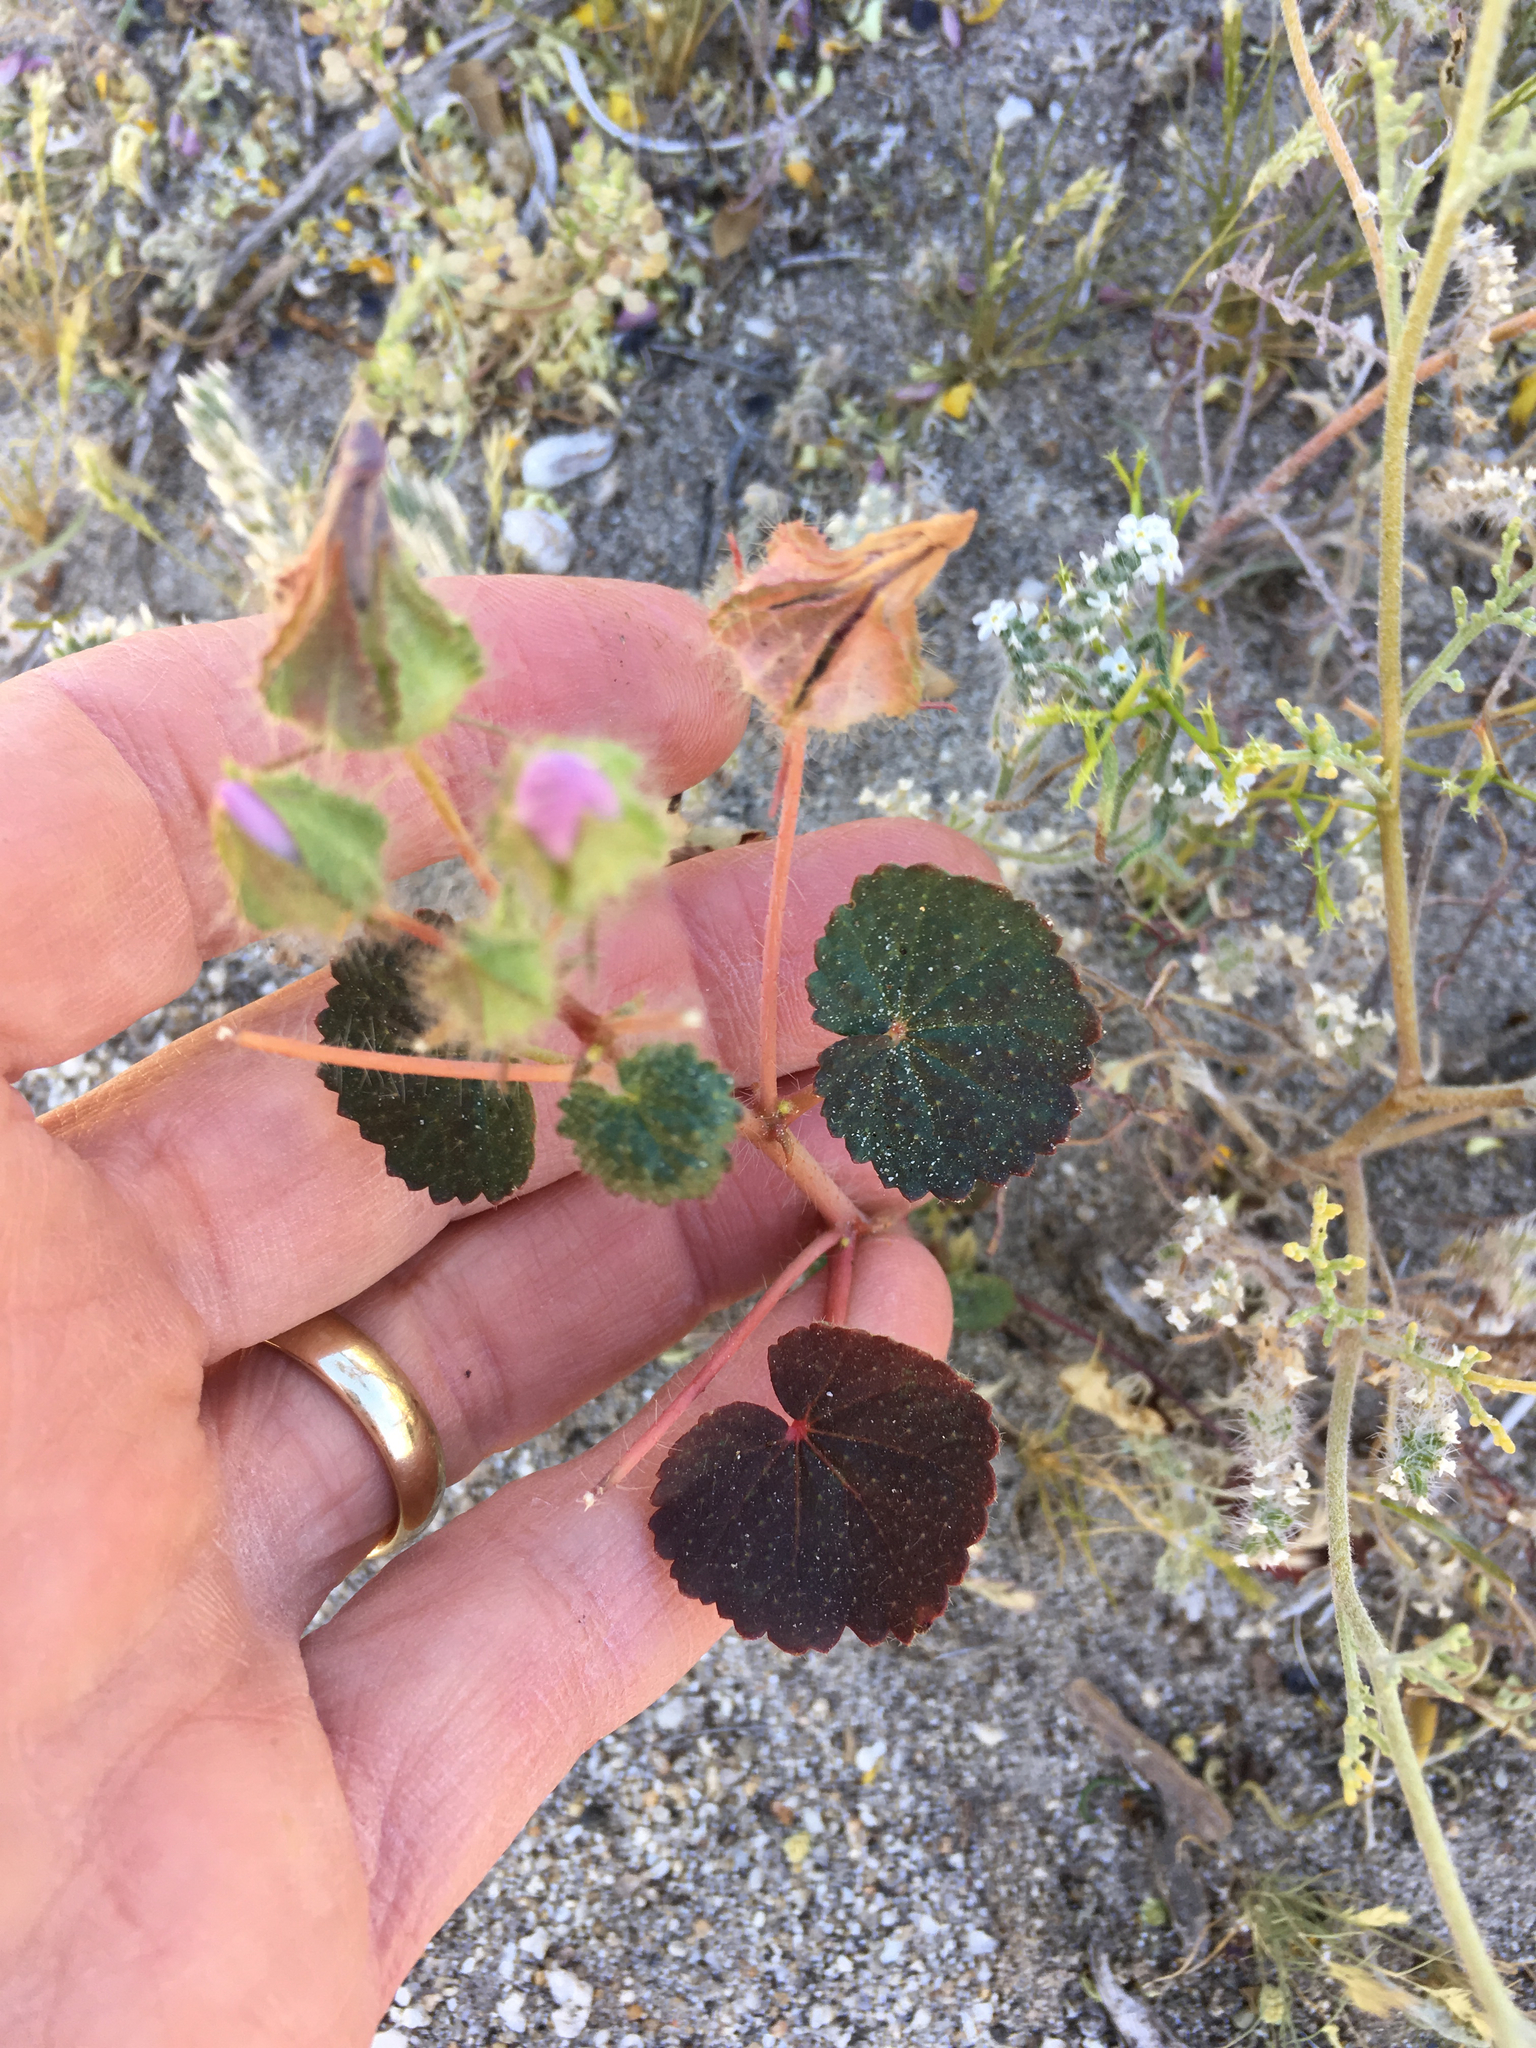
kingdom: Plantae
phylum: Tracheophyta
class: Magnoliopsida
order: Malvales
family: Malvaceae
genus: Eremalche
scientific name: Eremalche rotundifolia
